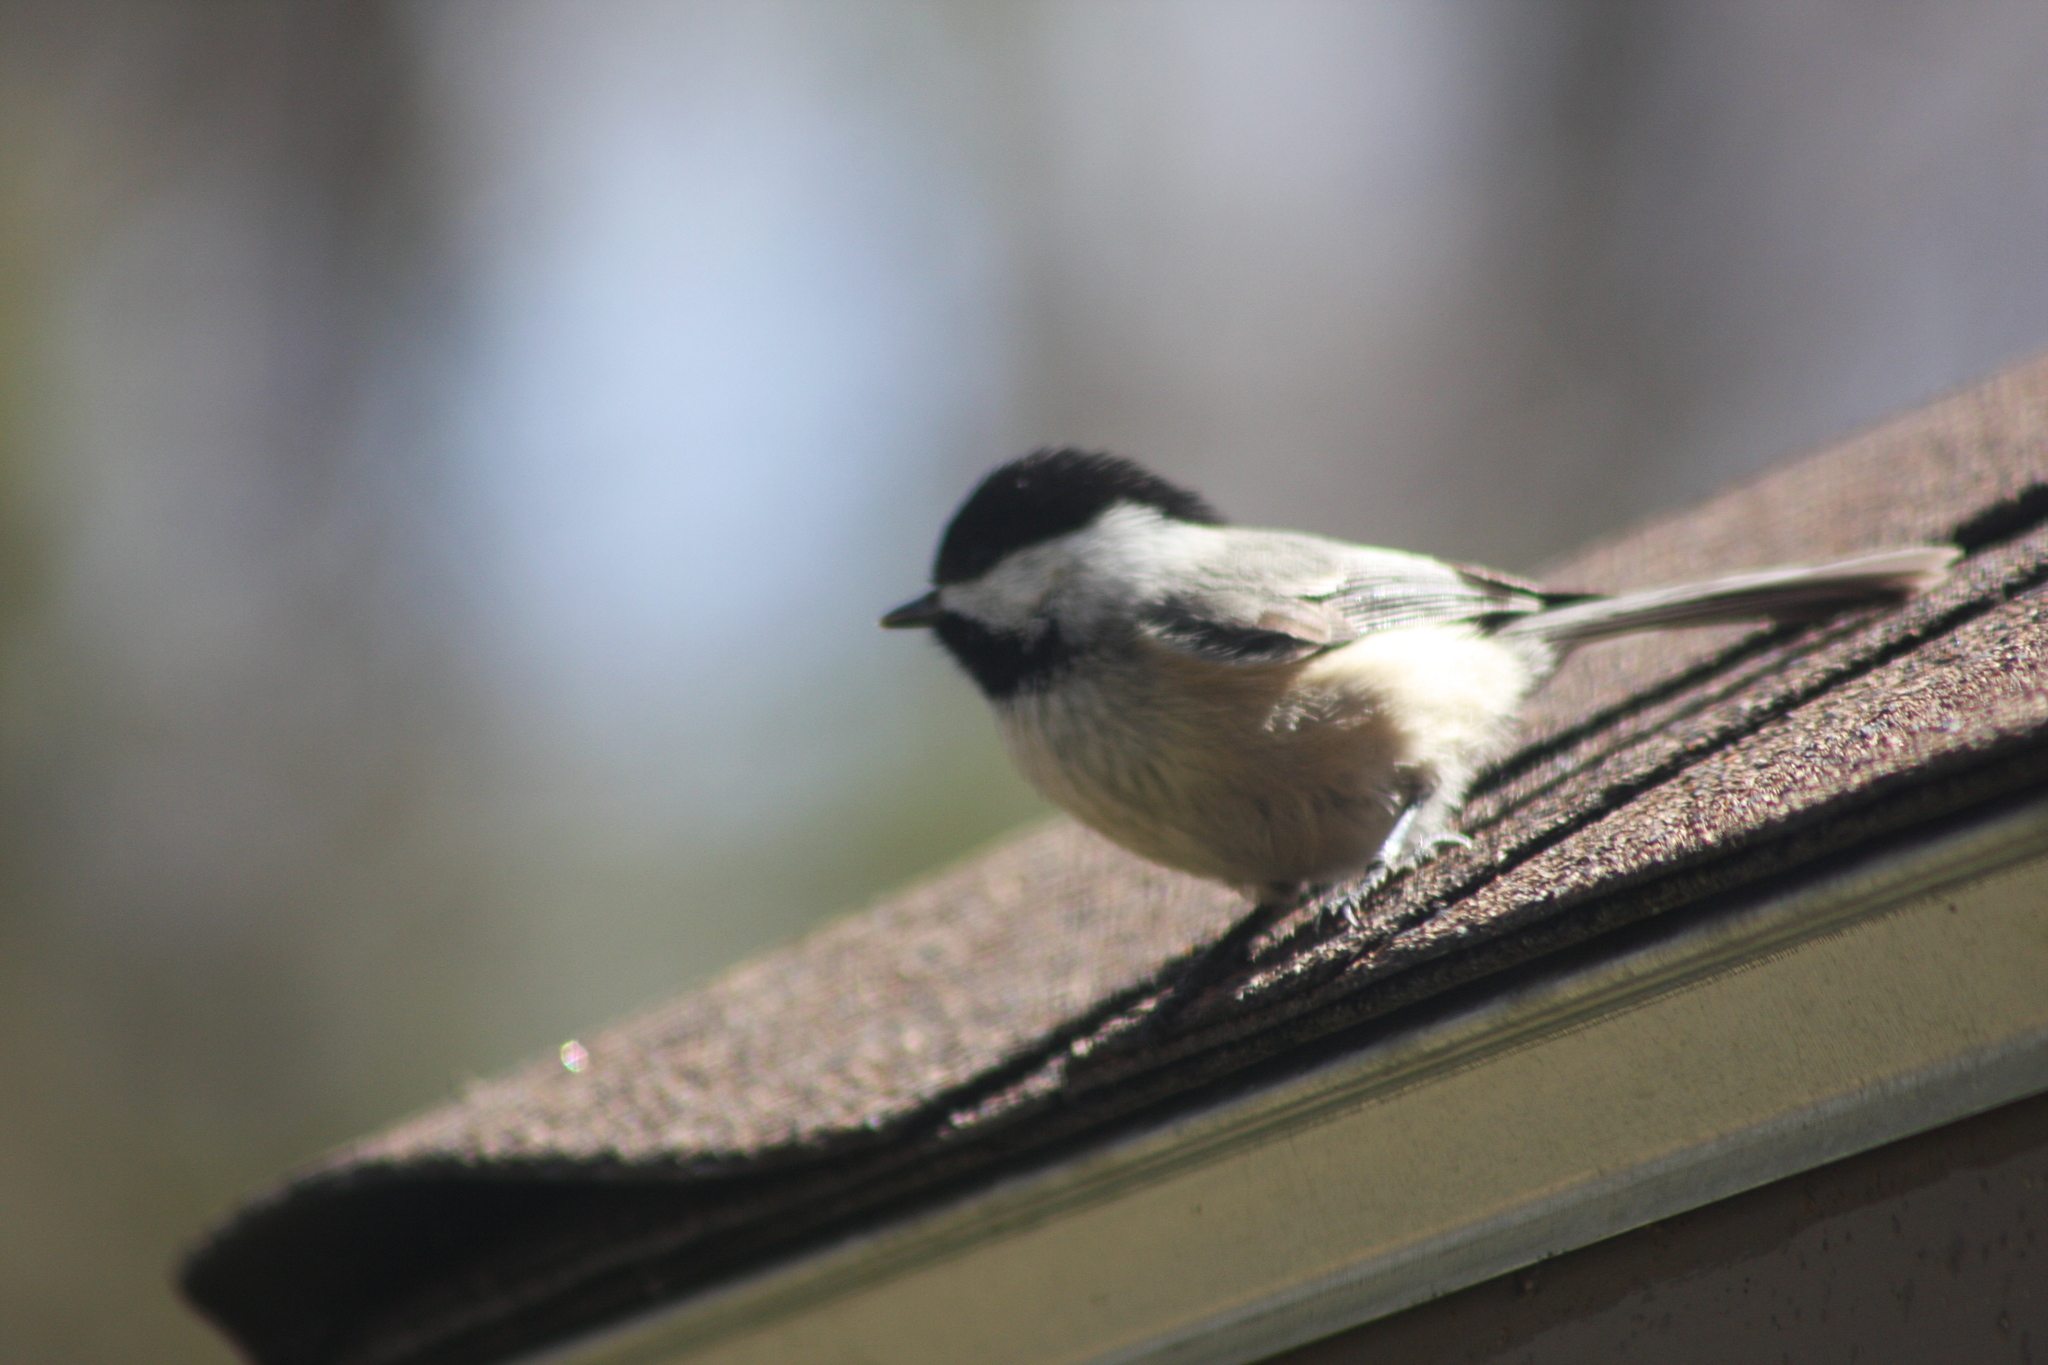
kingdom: Animalia
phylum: Chordata
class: Aves
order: Passeriformes
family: Paridae
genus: Poecile
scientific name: Poecile atricapillus
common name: Black-capped chickadee
